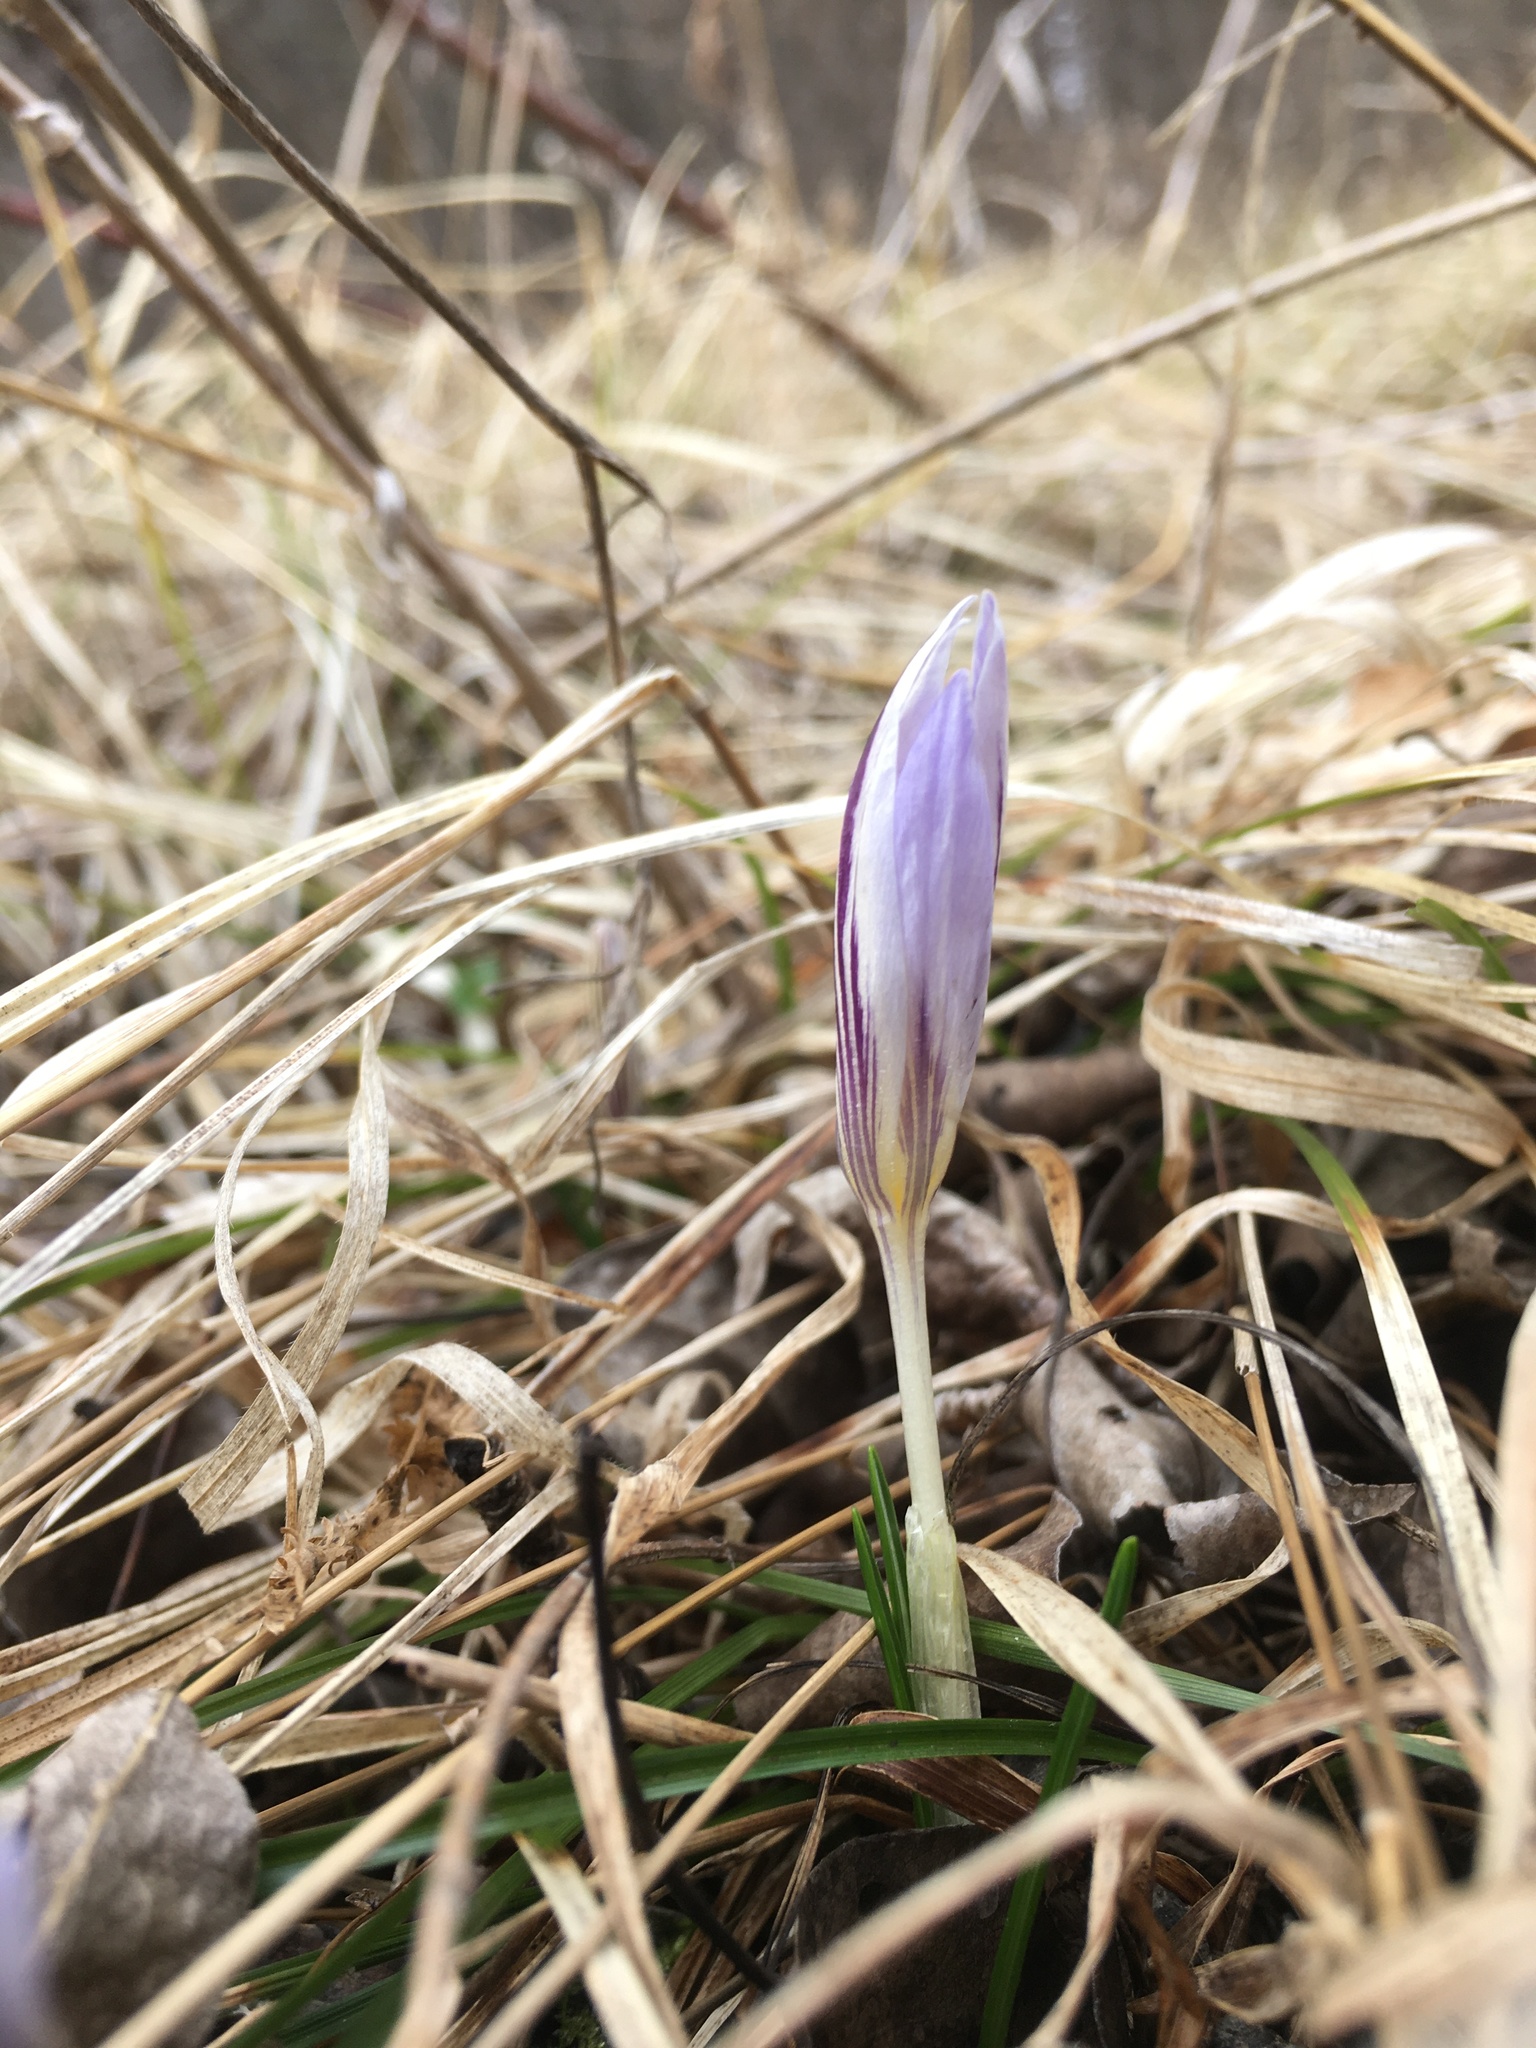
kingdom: Plantae
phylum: Tracheophyta
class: Liliopsida
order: Asparagales
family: Iridaceae
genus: Crocus
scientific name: Crocus reticulatus
